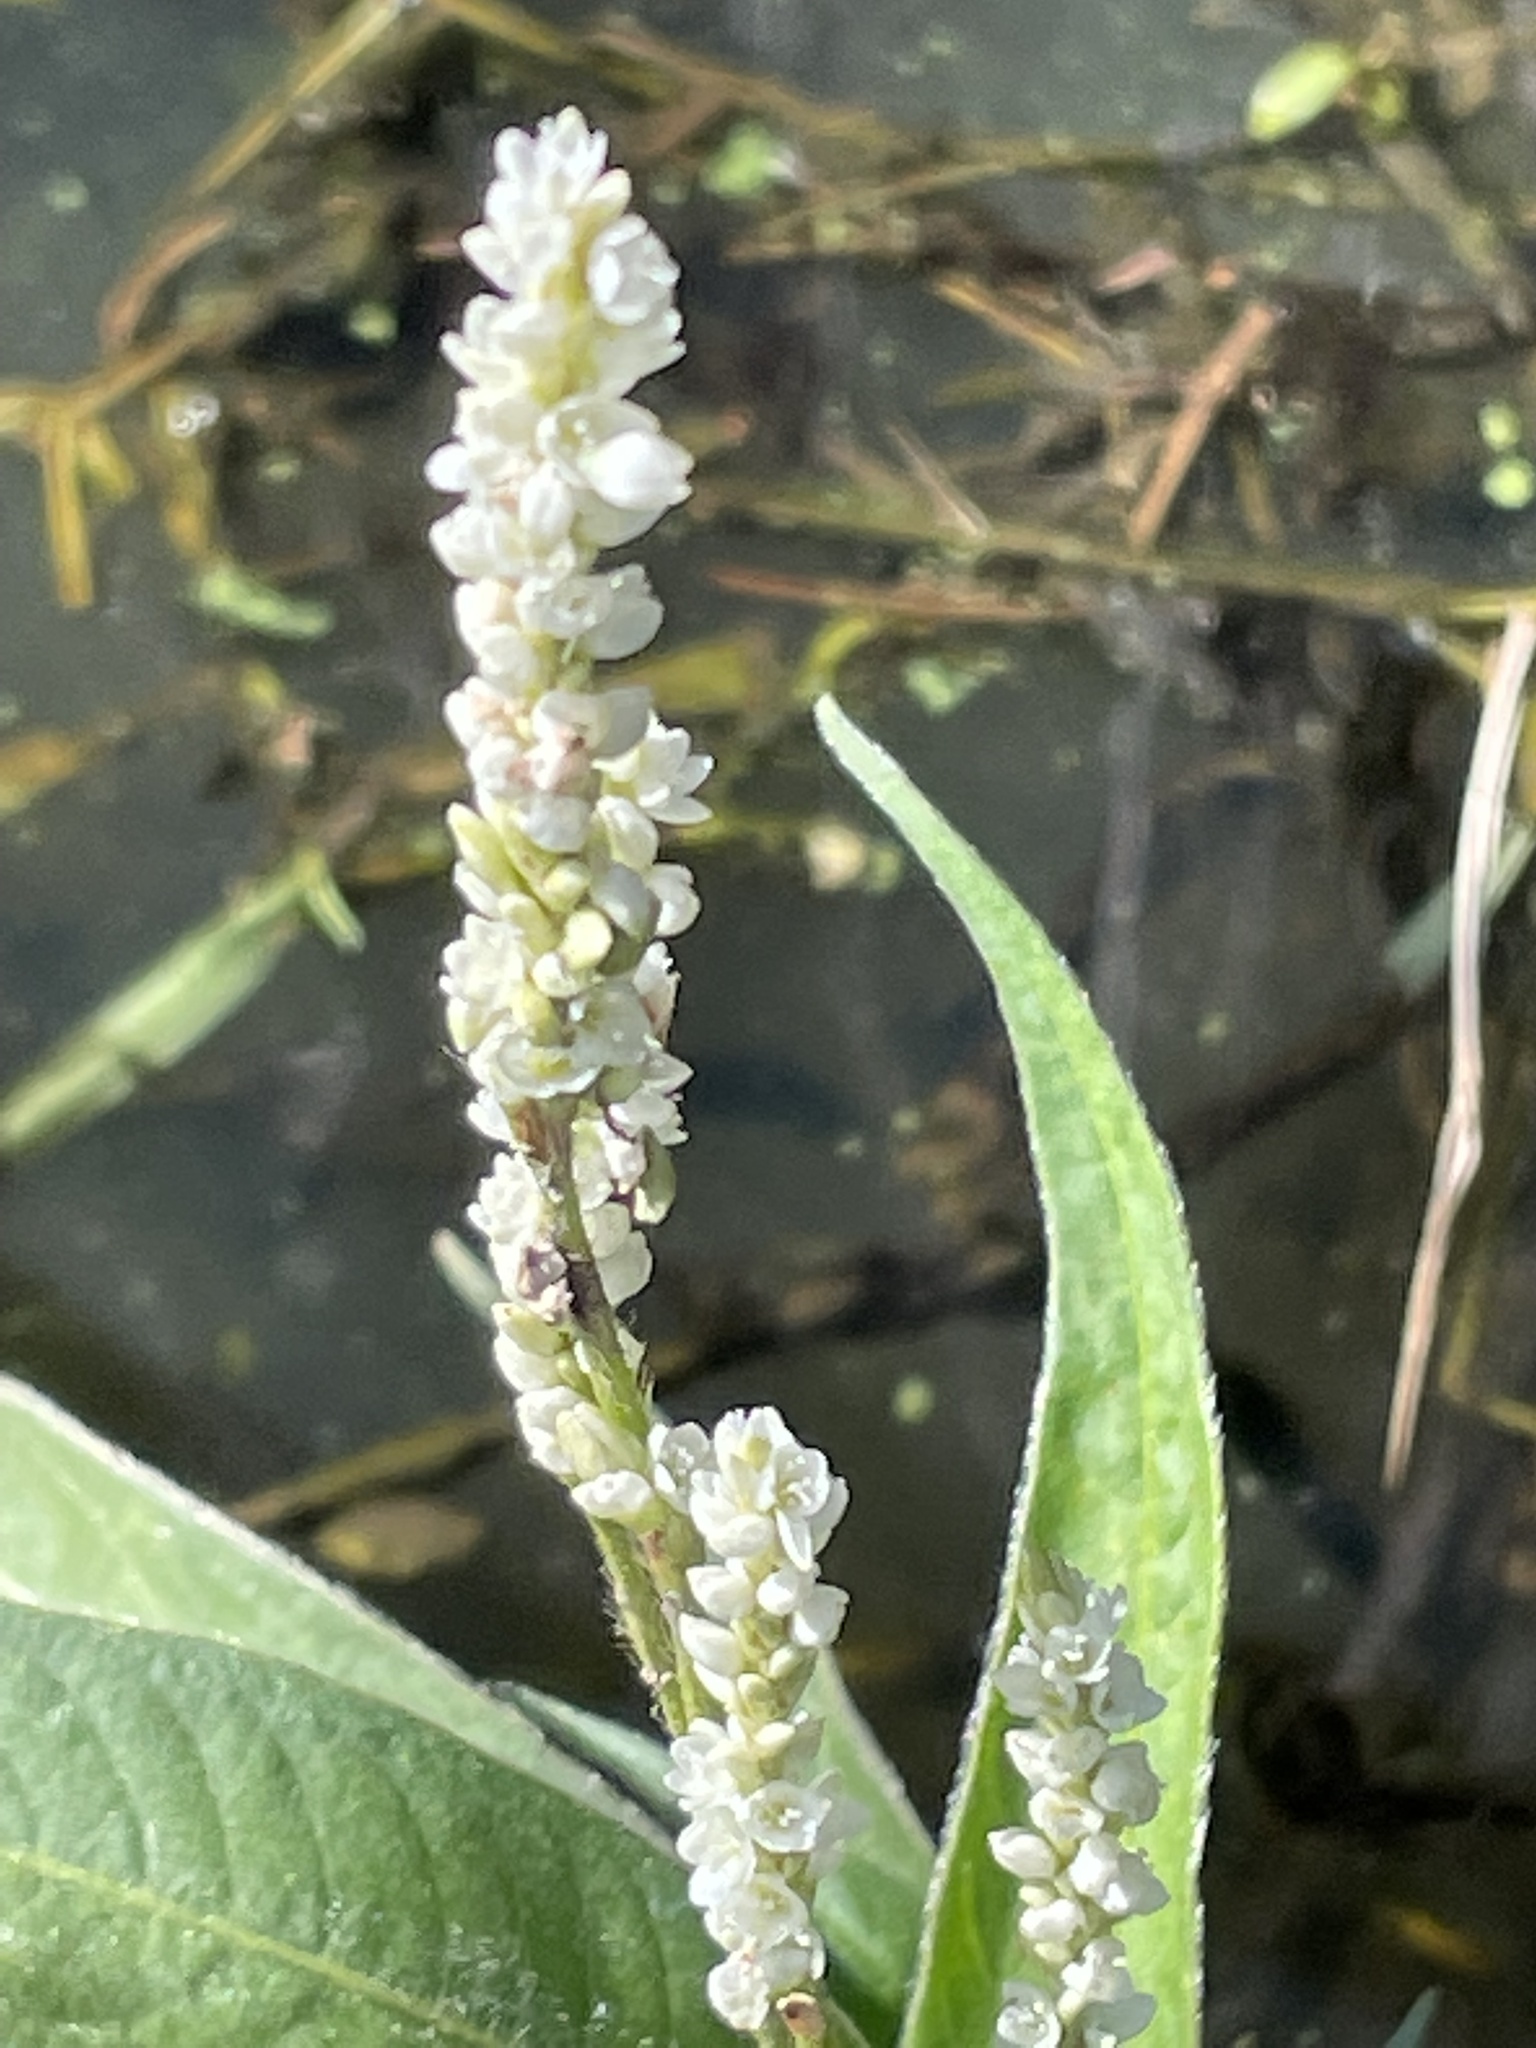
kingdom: Plantae
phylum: Tracheophyta
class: Magnoliopsida
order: Caryophyllales
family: Polygonaceae
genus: Persicaria
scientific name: Persicaria attenuata
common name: Hairy knotweed
